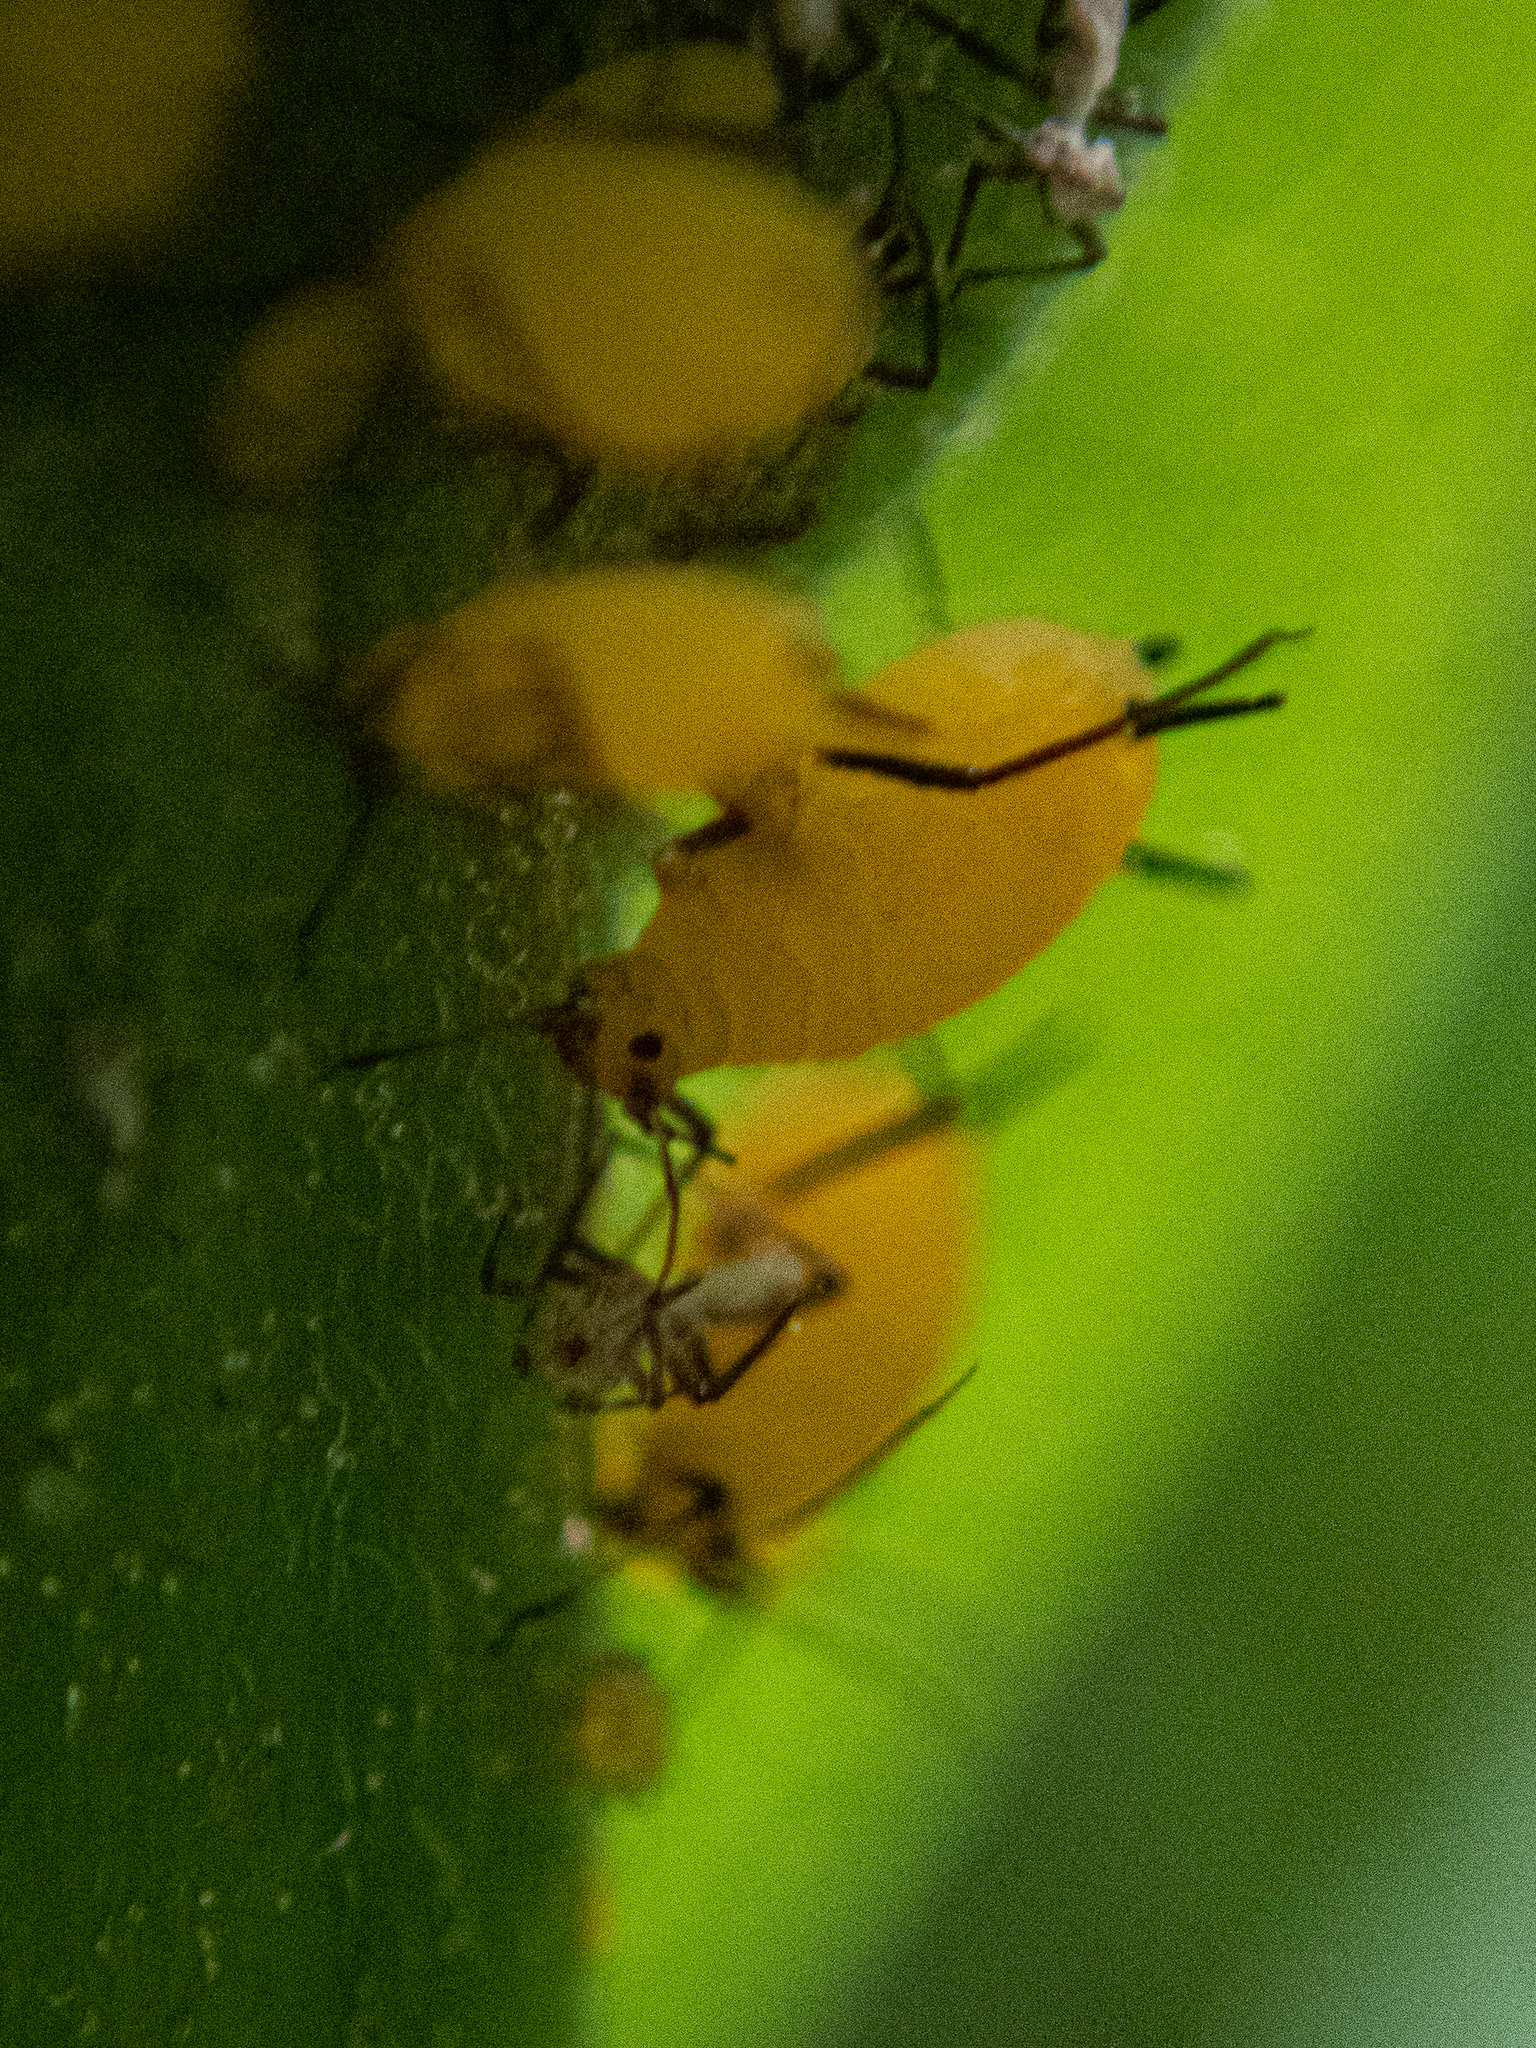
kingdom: Animalia
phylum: Arthropoda
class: Insecta
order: Hemiptera
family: Aphididae
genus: Aphis
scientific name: Aphis nerii
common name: Oleander aphid
